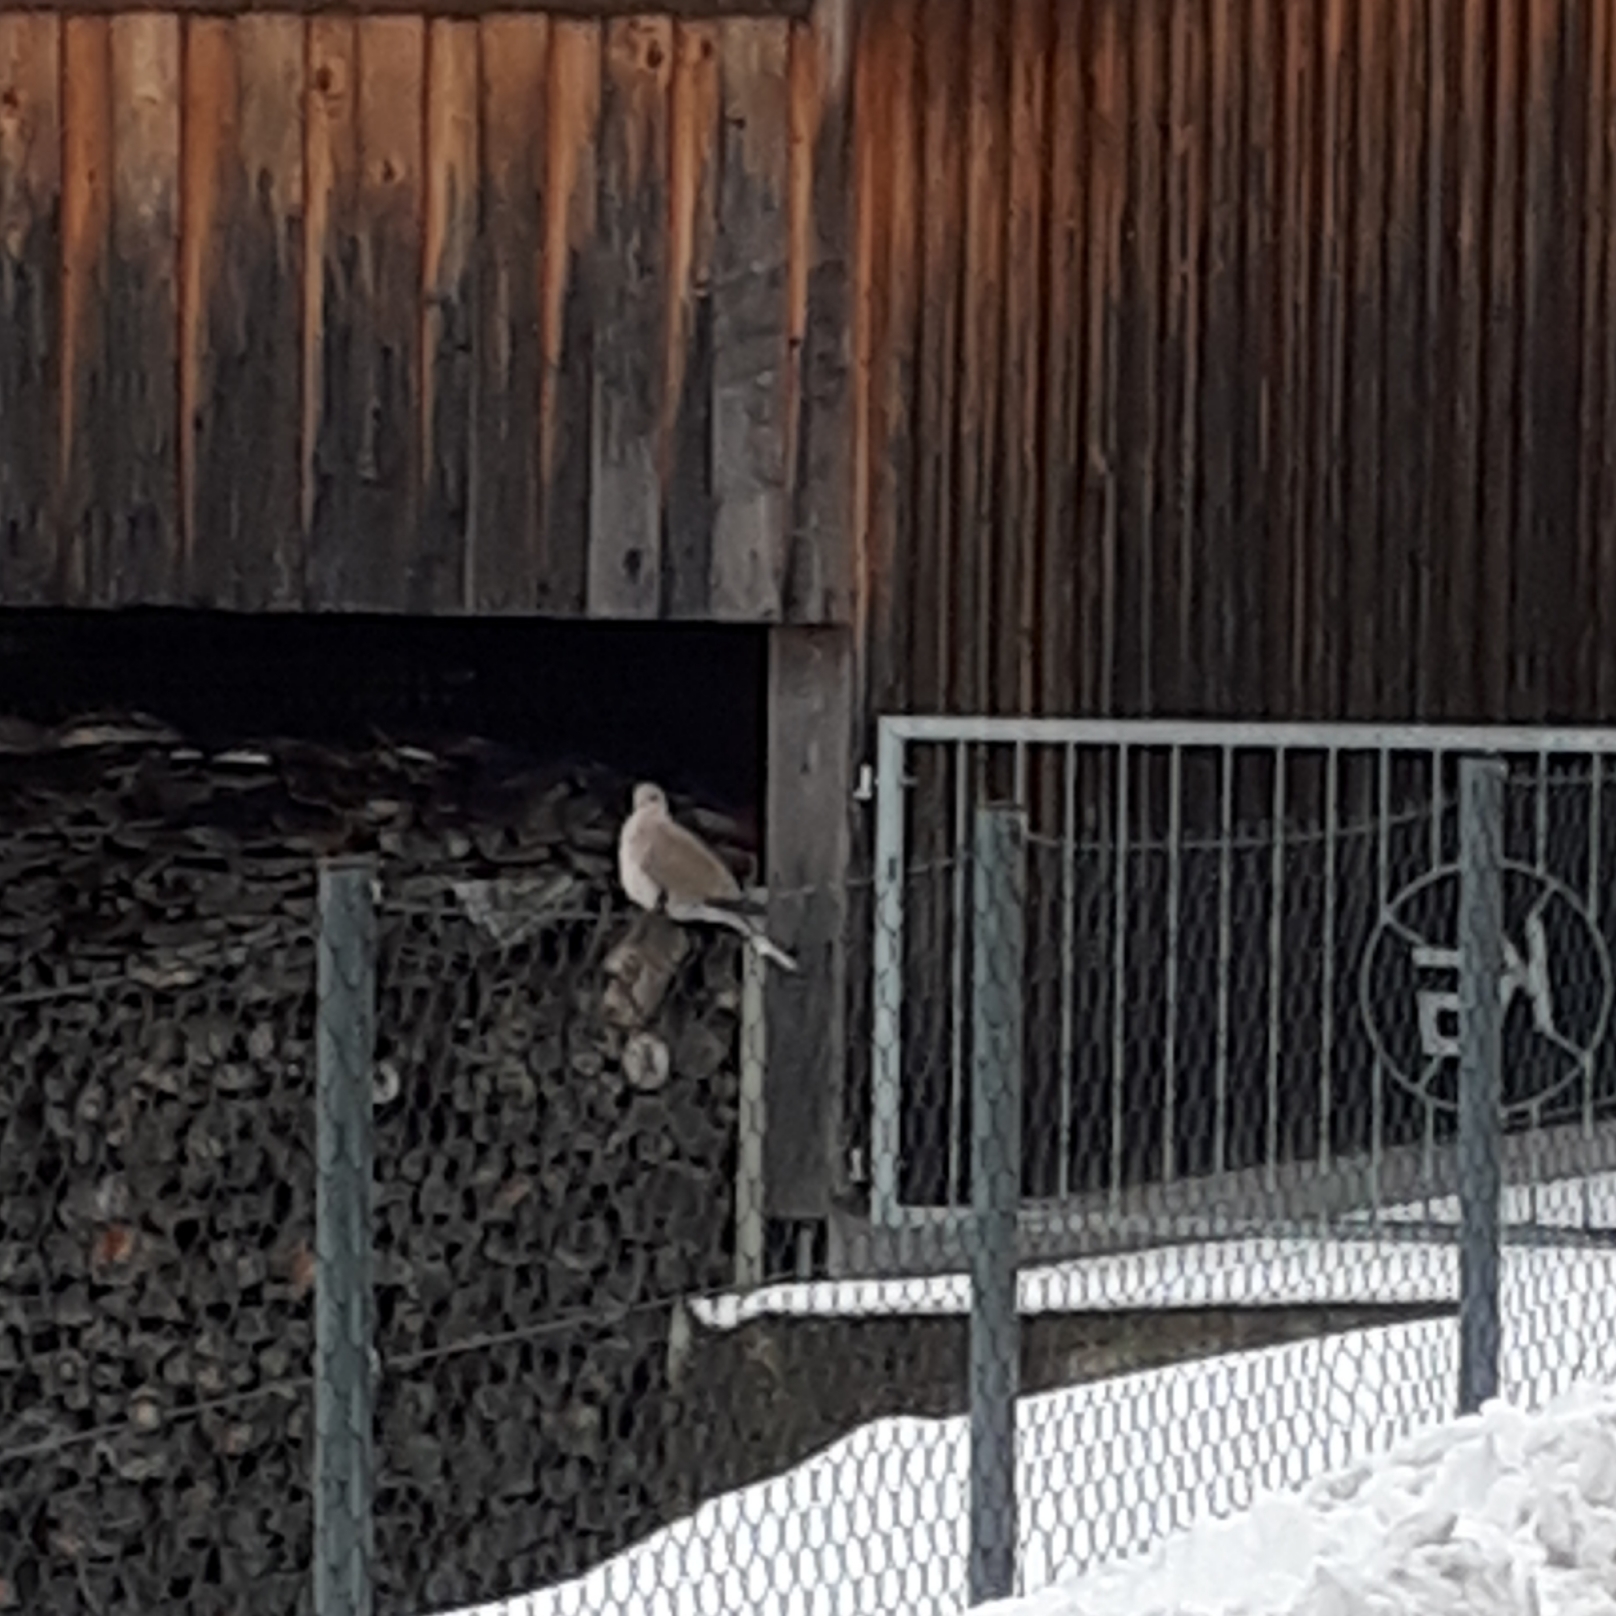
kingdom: Animalia
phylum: Chordata
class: Aves
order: Columbiformes
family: Columbidae
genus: Streptopelia
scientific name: Streptopelia decaocto
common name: Eurasian collared dove
